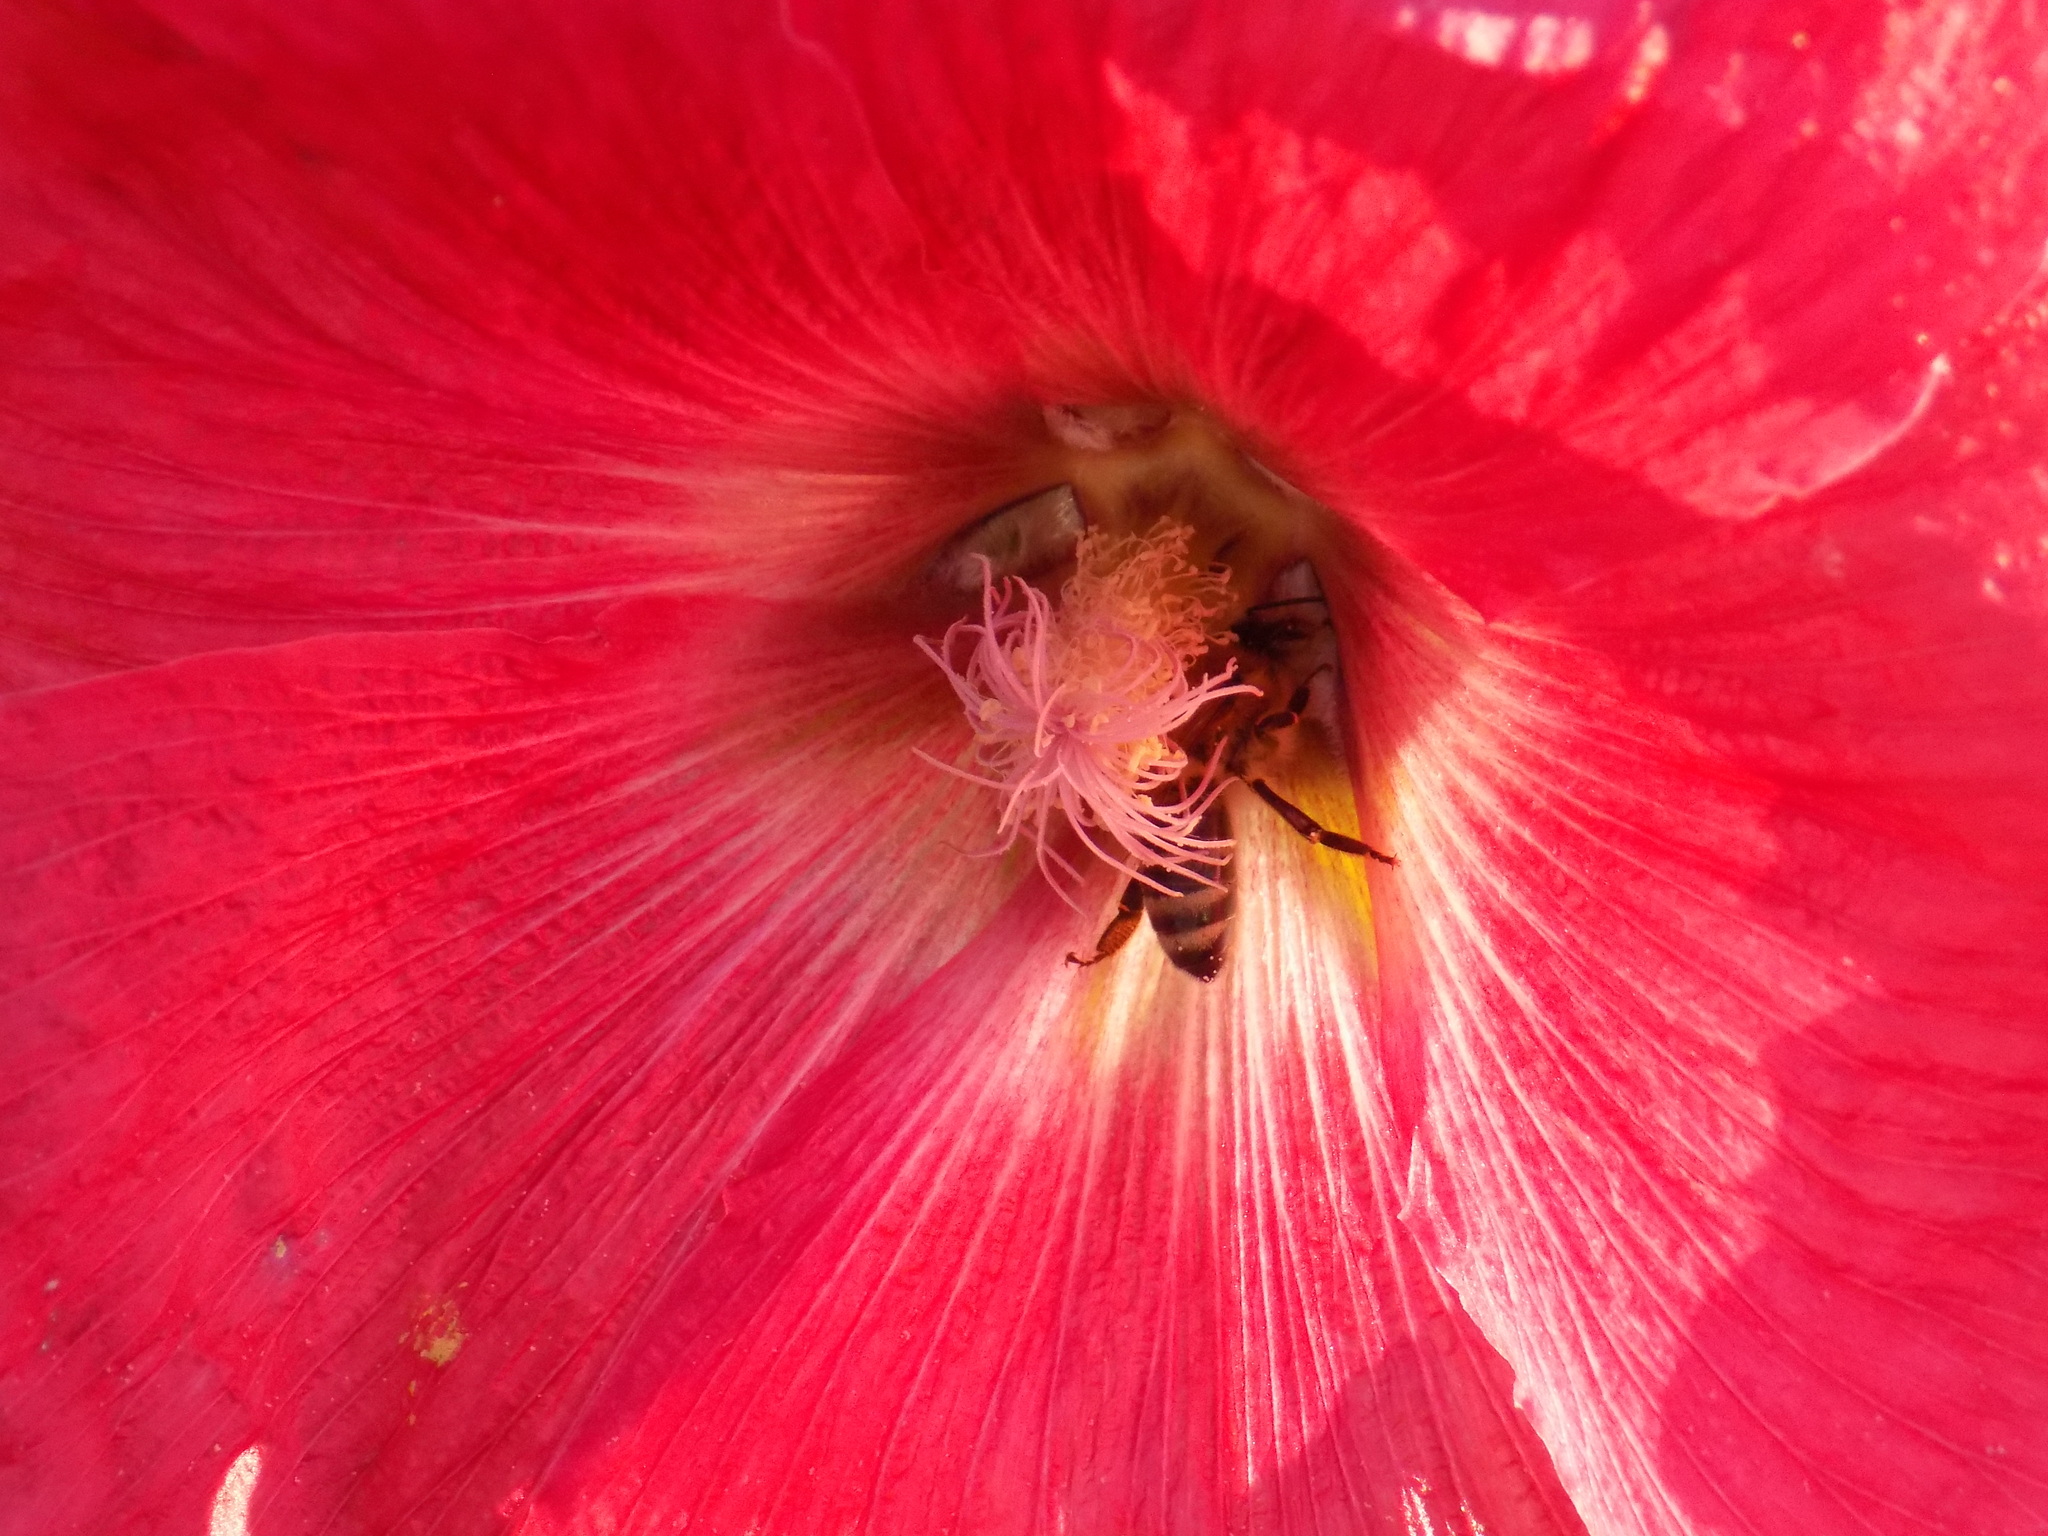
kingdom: Animalia
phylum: Arthropoda
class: Insecta
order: Hymenoptera
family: Apidae
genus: Apis
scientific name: Apis mellifera
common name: Honey bee
